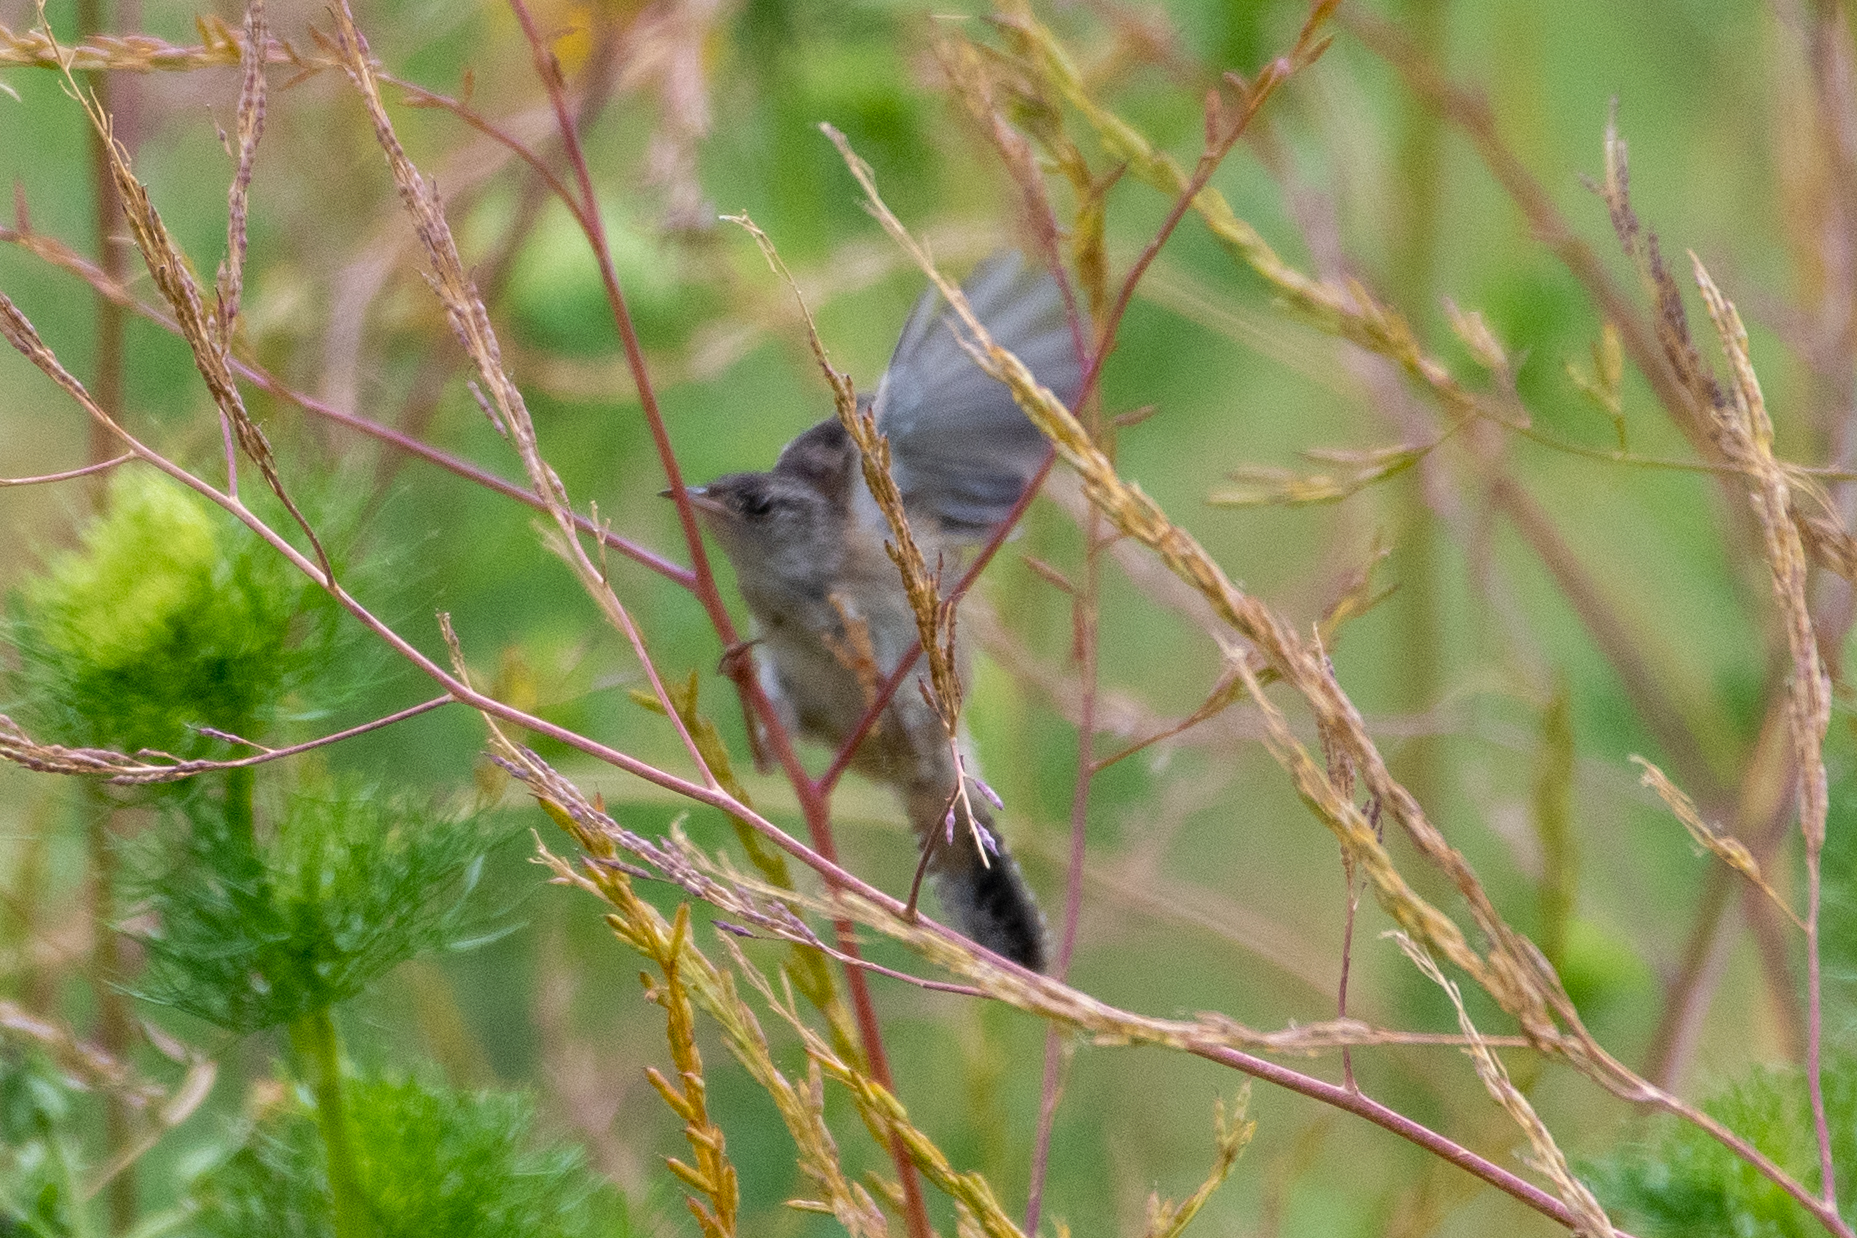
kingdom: Animalia
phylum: Chordata
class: Aves
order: Passeriformes
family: Troglodytidae
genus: Cistothorus
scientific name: Cistothorus palustris
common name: Marsh wren
